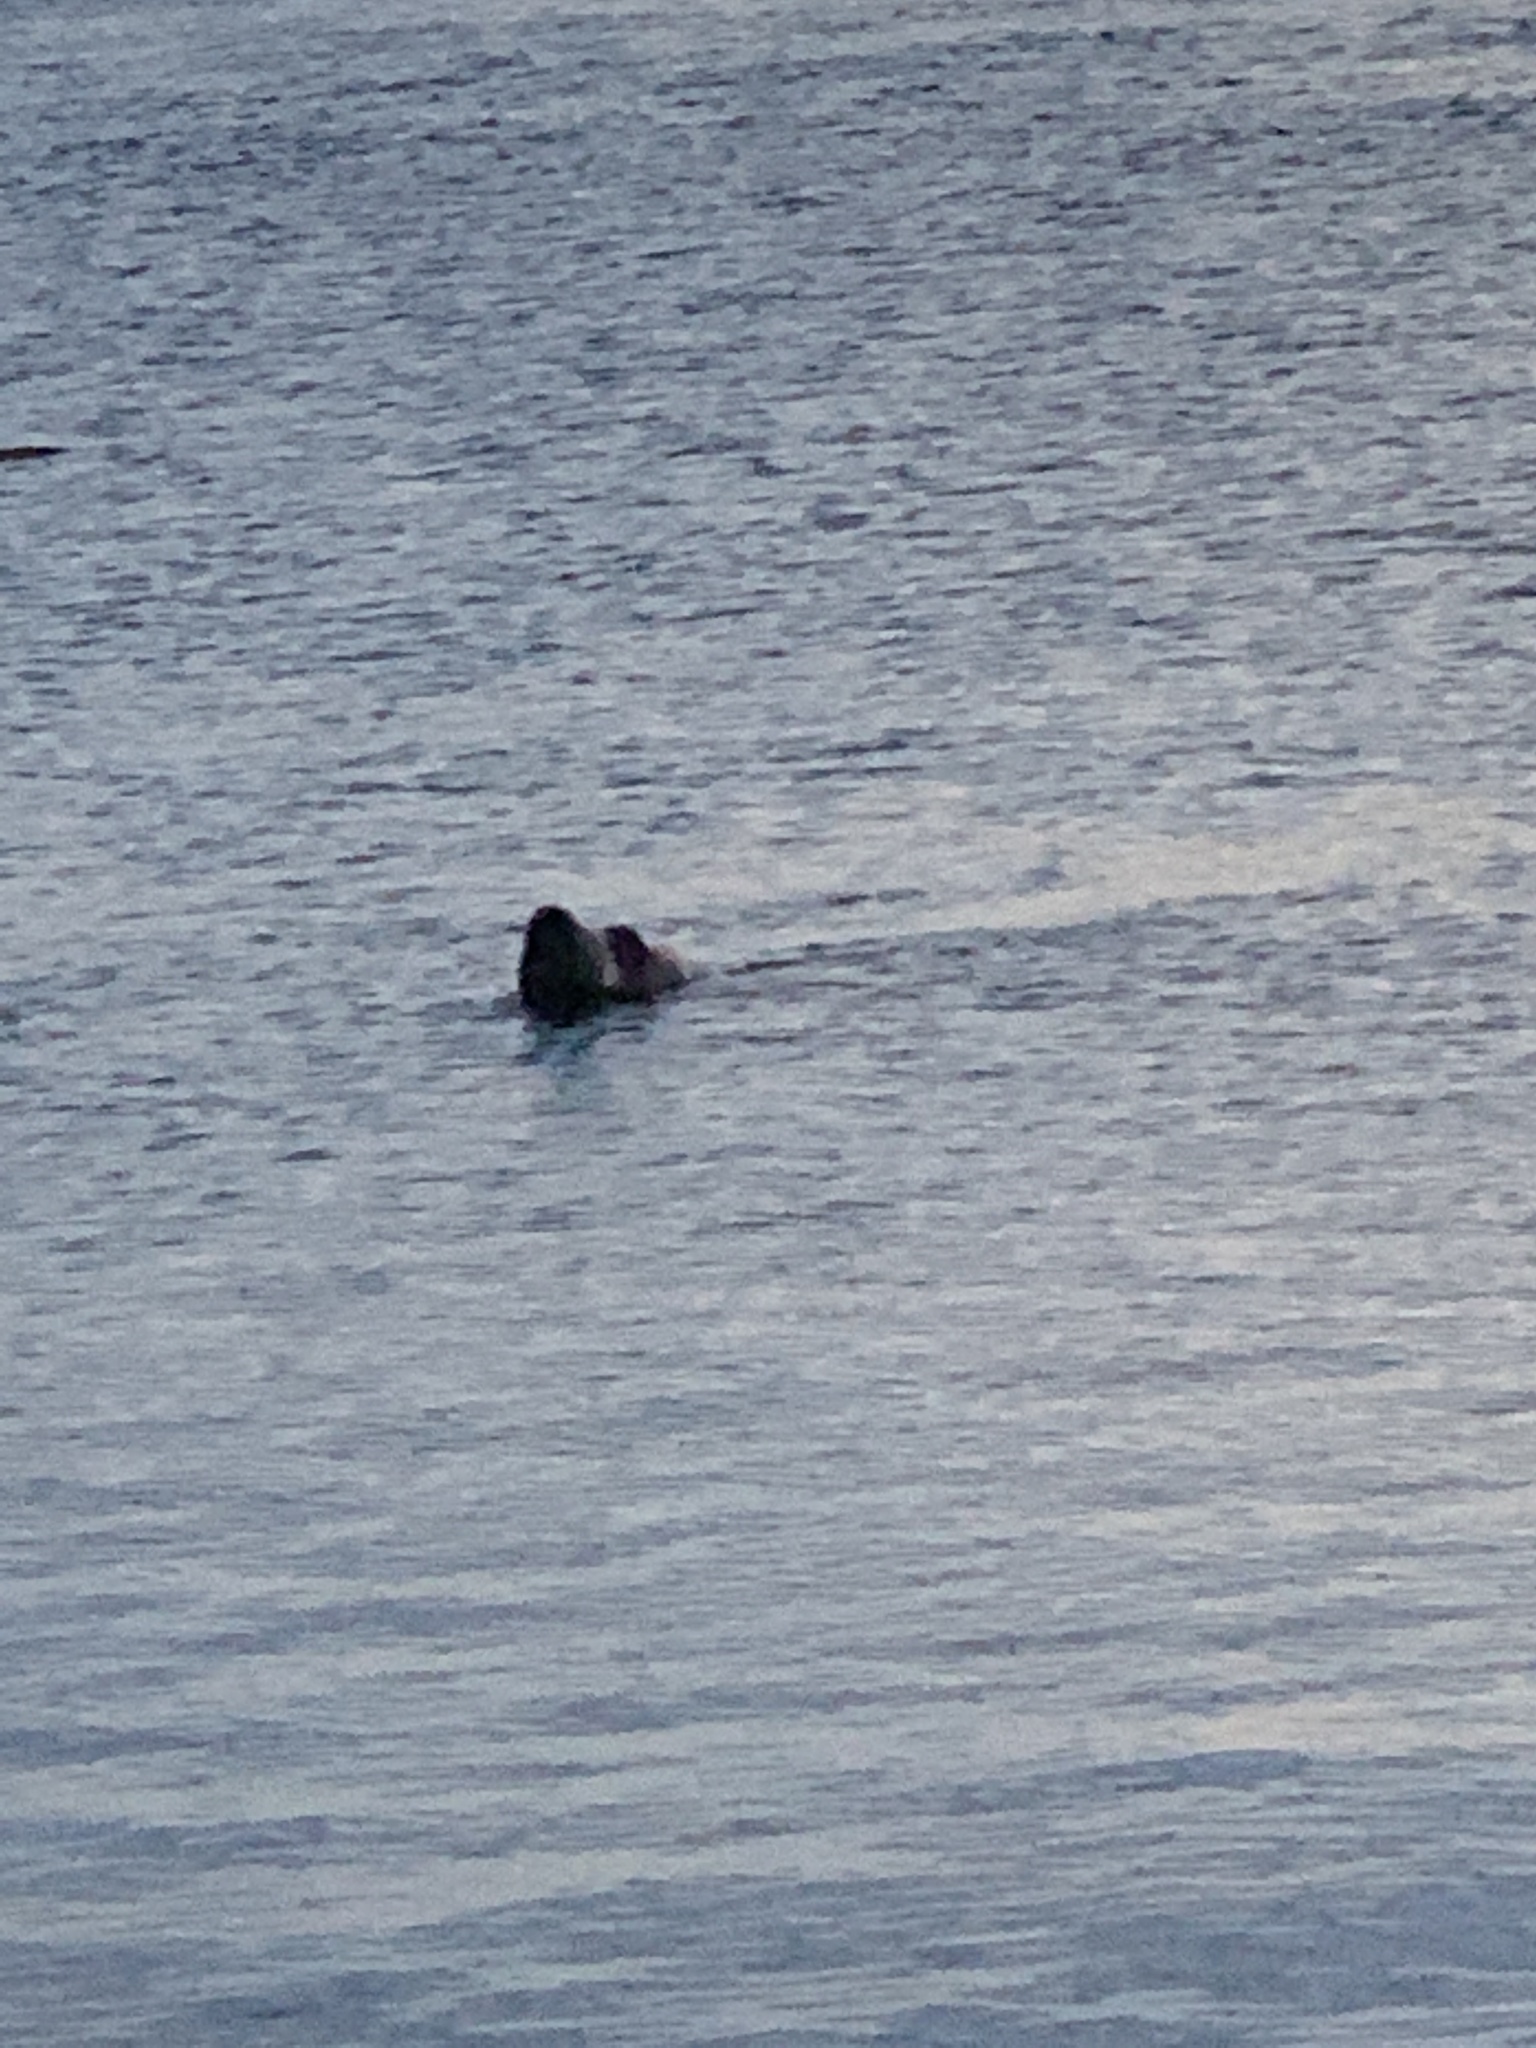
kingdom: Animalia
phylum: Chordata
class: Mammalia
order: Carnivora
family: Otariidae
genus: Eumetopias
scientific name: Eumetopias jubatus
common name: Steller sea lion
